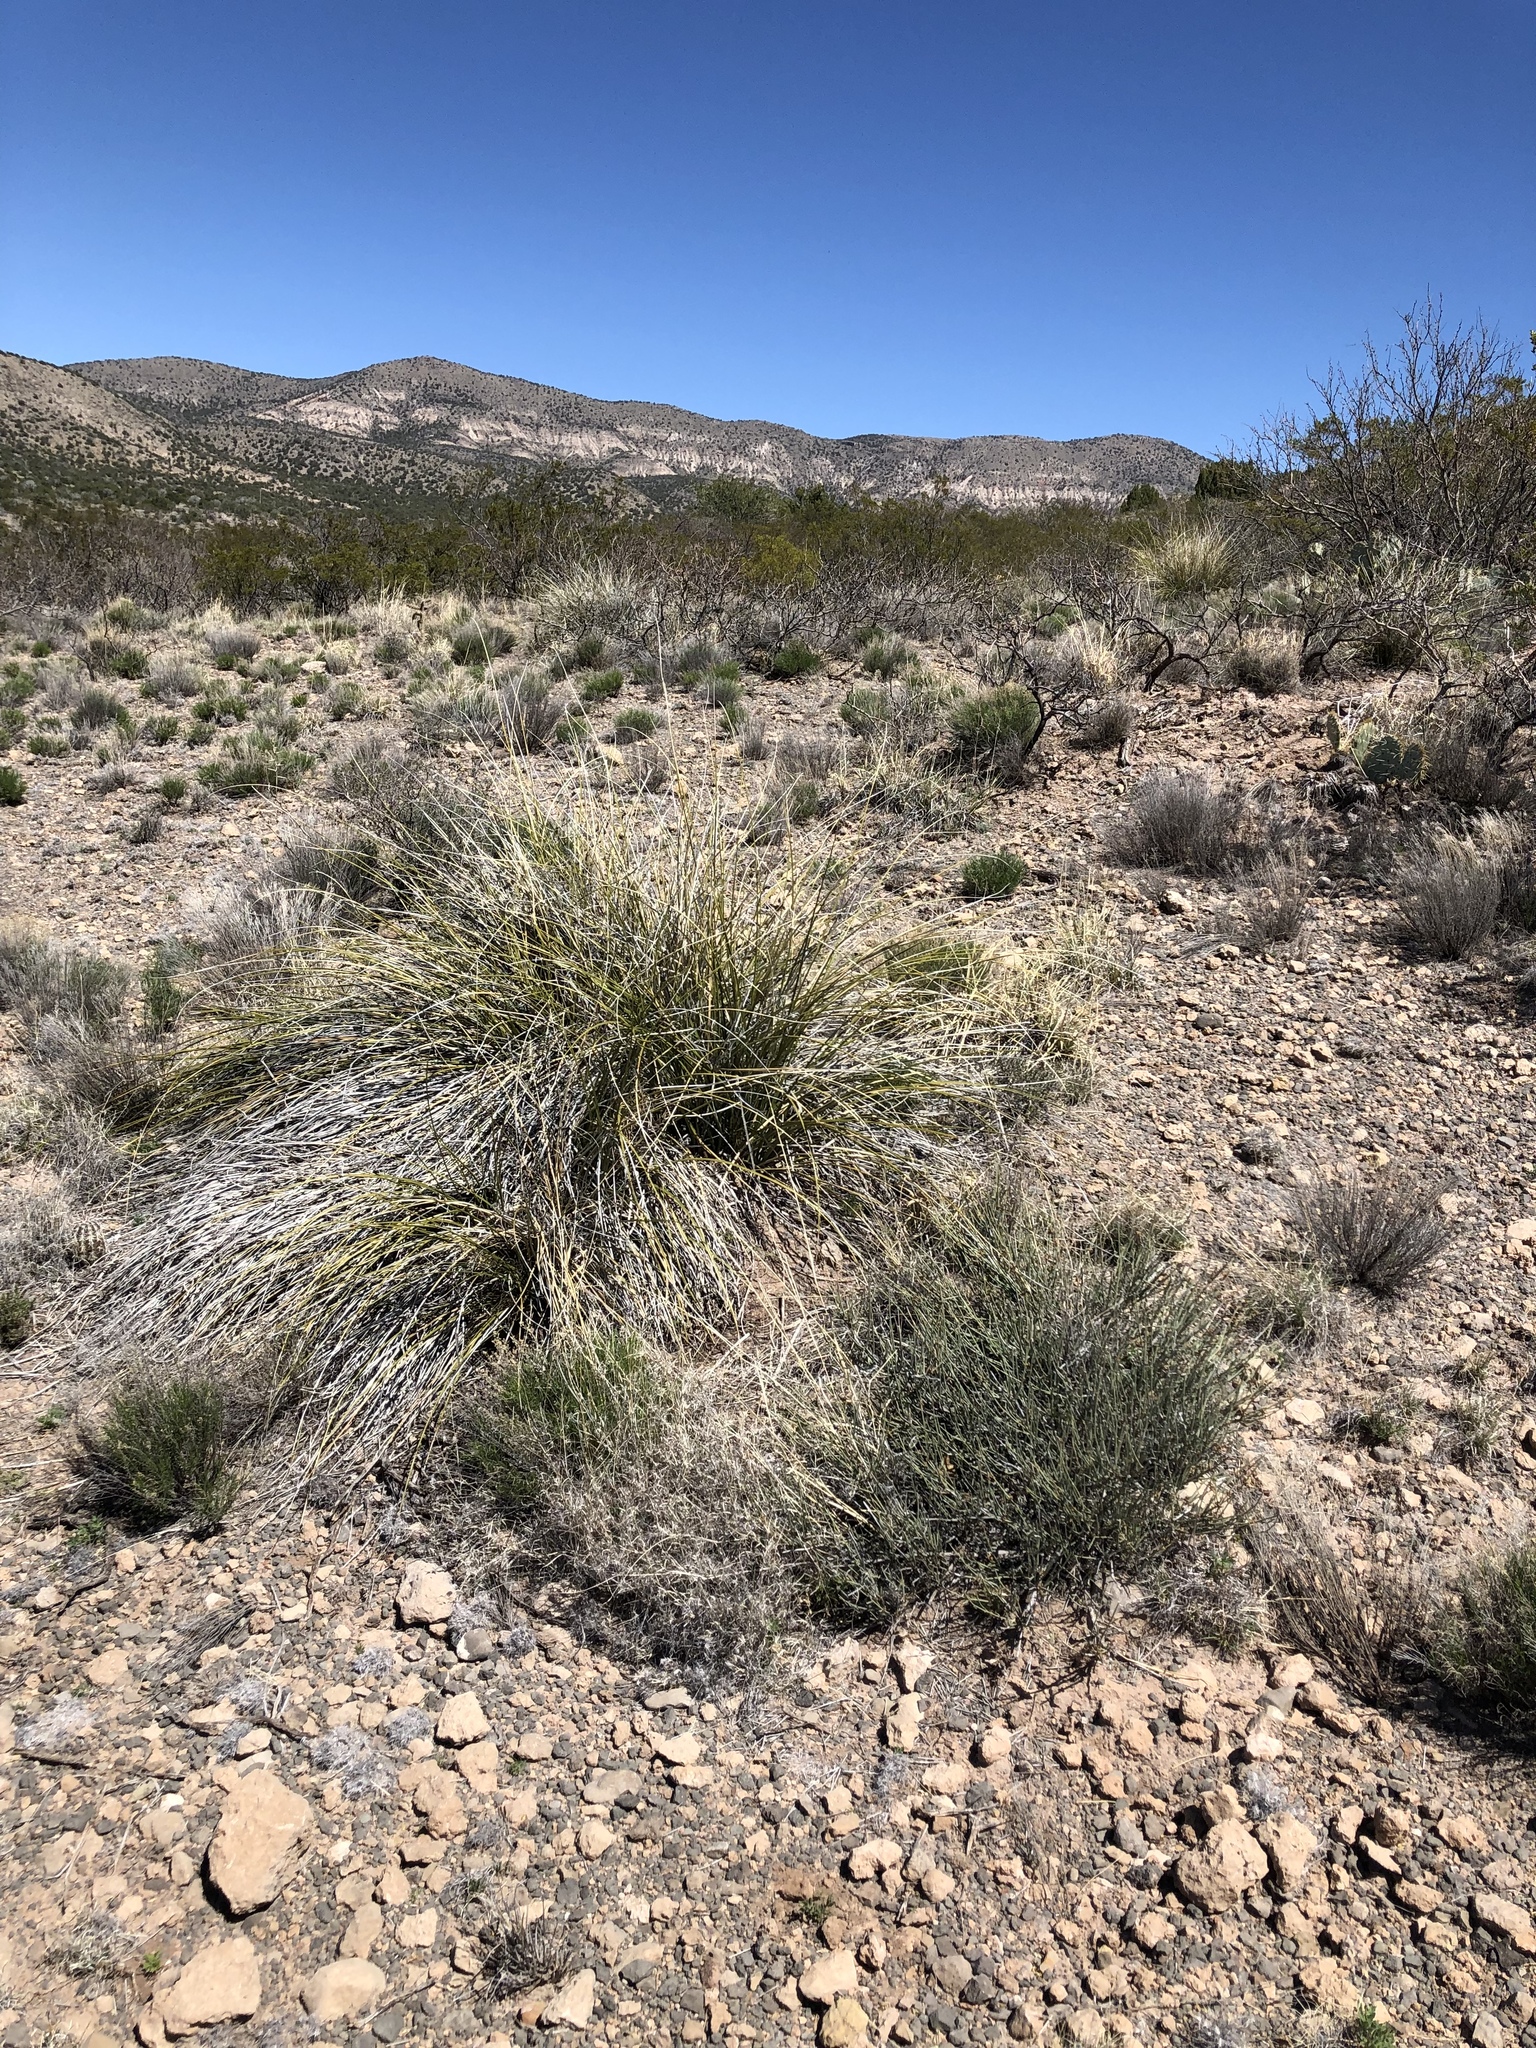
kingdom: Plantae
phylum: Tracheophyta
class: Liliopsida
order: Asparagales
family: Asparagaceae
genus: Nolina
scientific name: Nolina microcarpa
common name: Bear-grass
